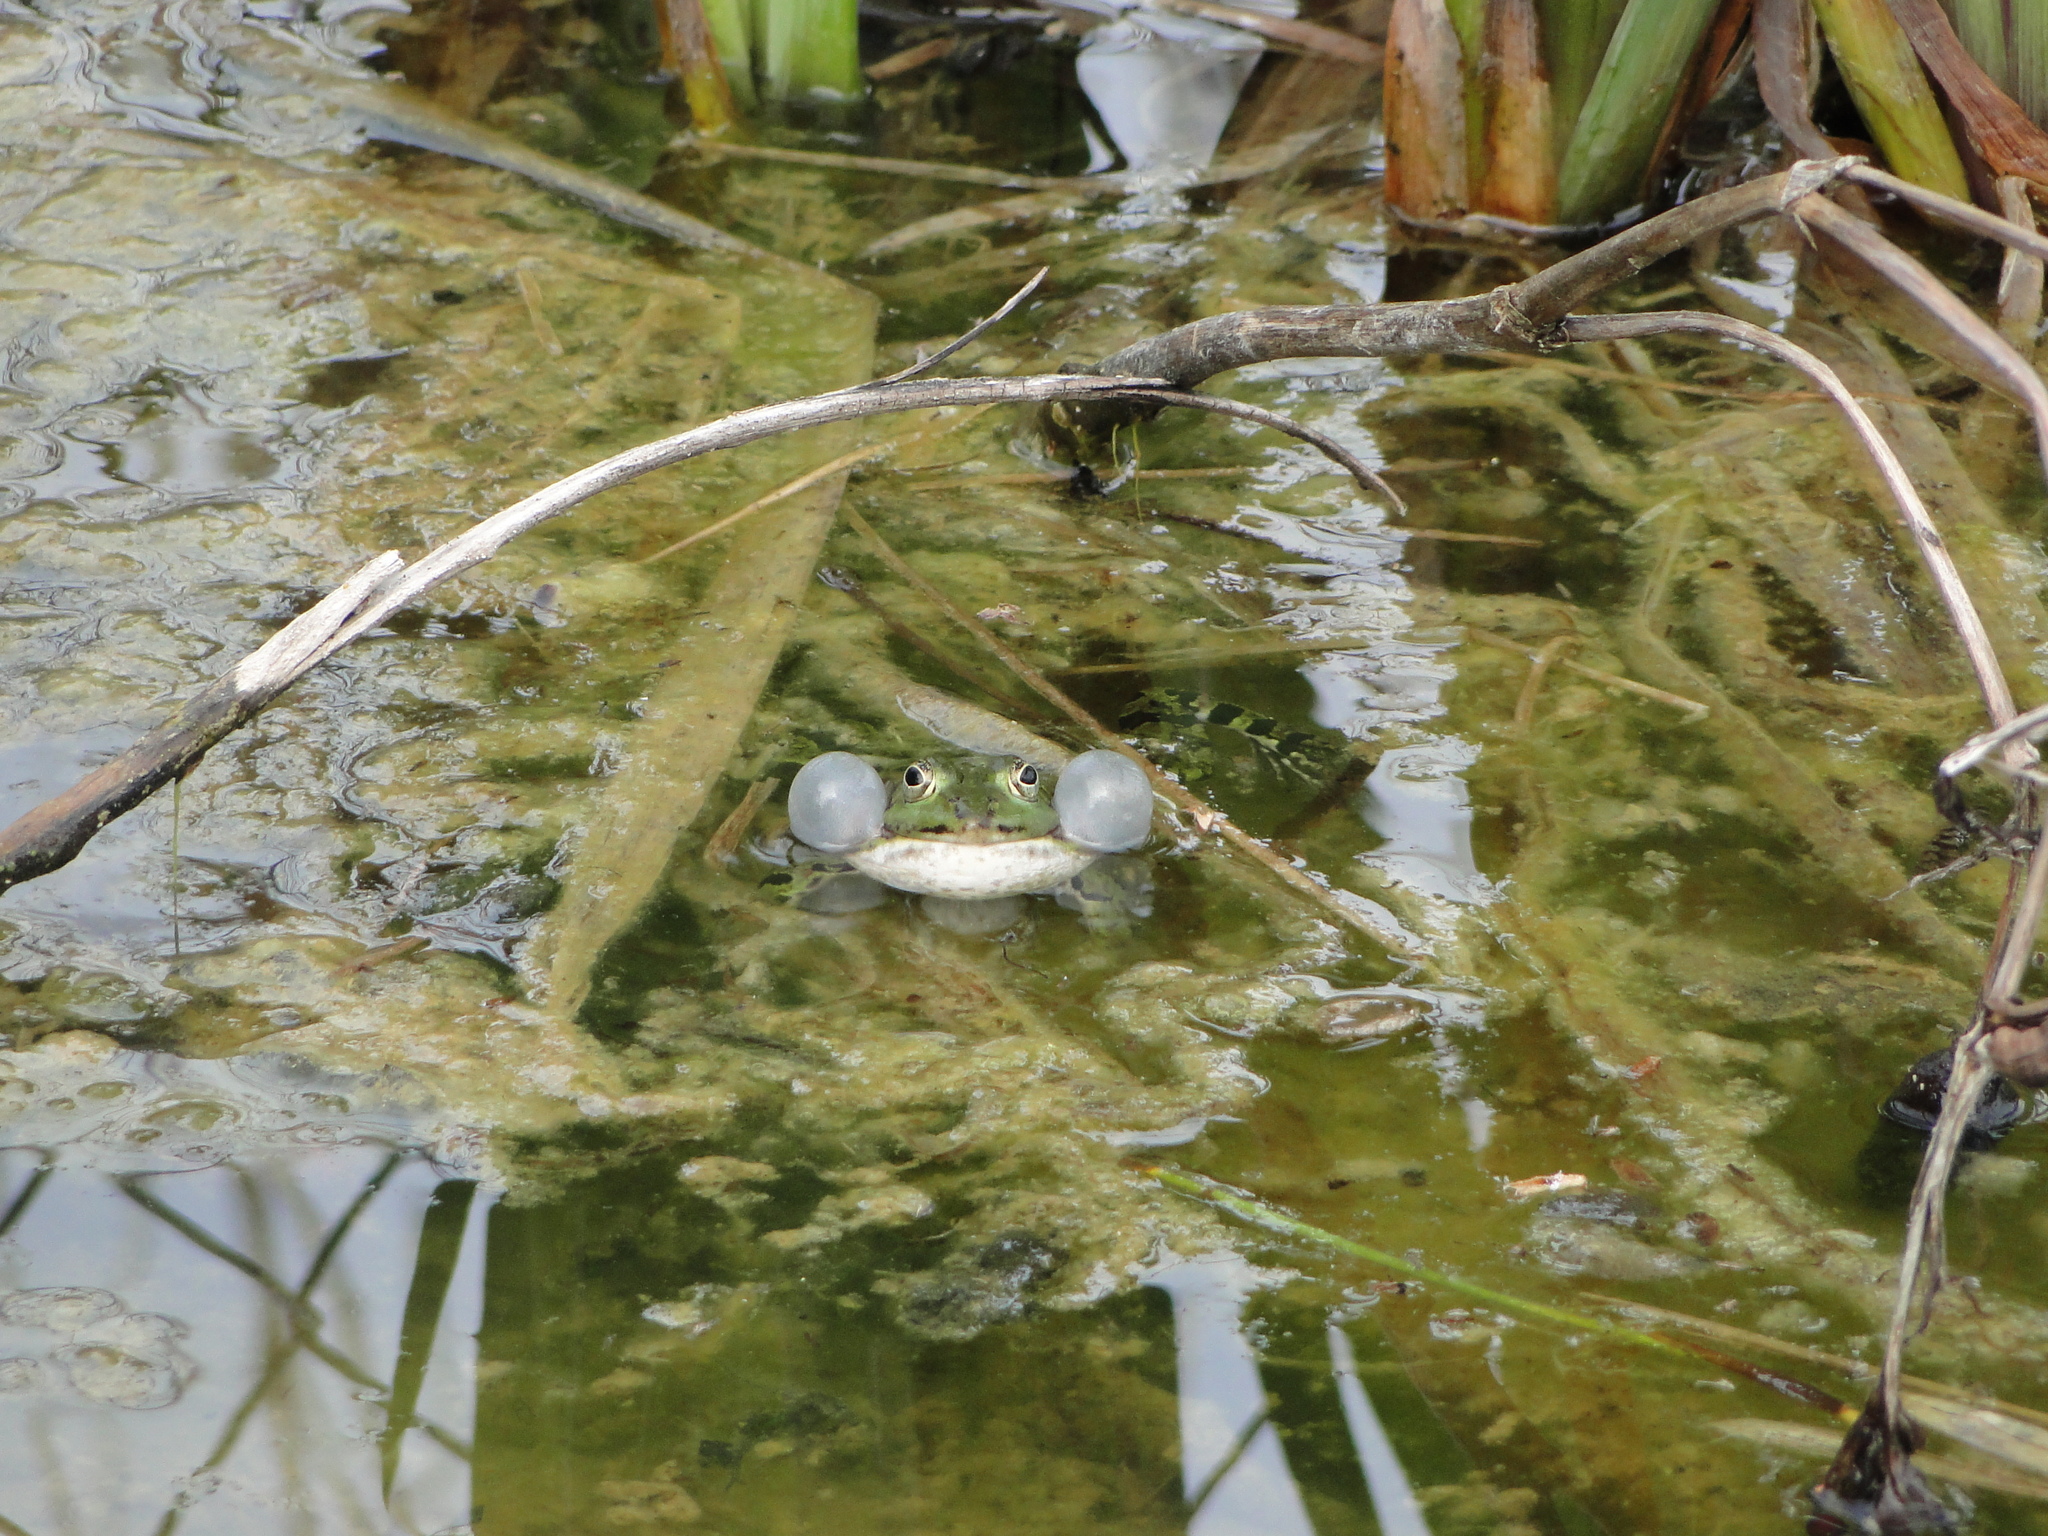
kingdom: Animalia
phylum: Chordata
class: Amphibia
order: Anura
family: Ranidae
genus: Pelophylax
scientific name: Pelophylax
